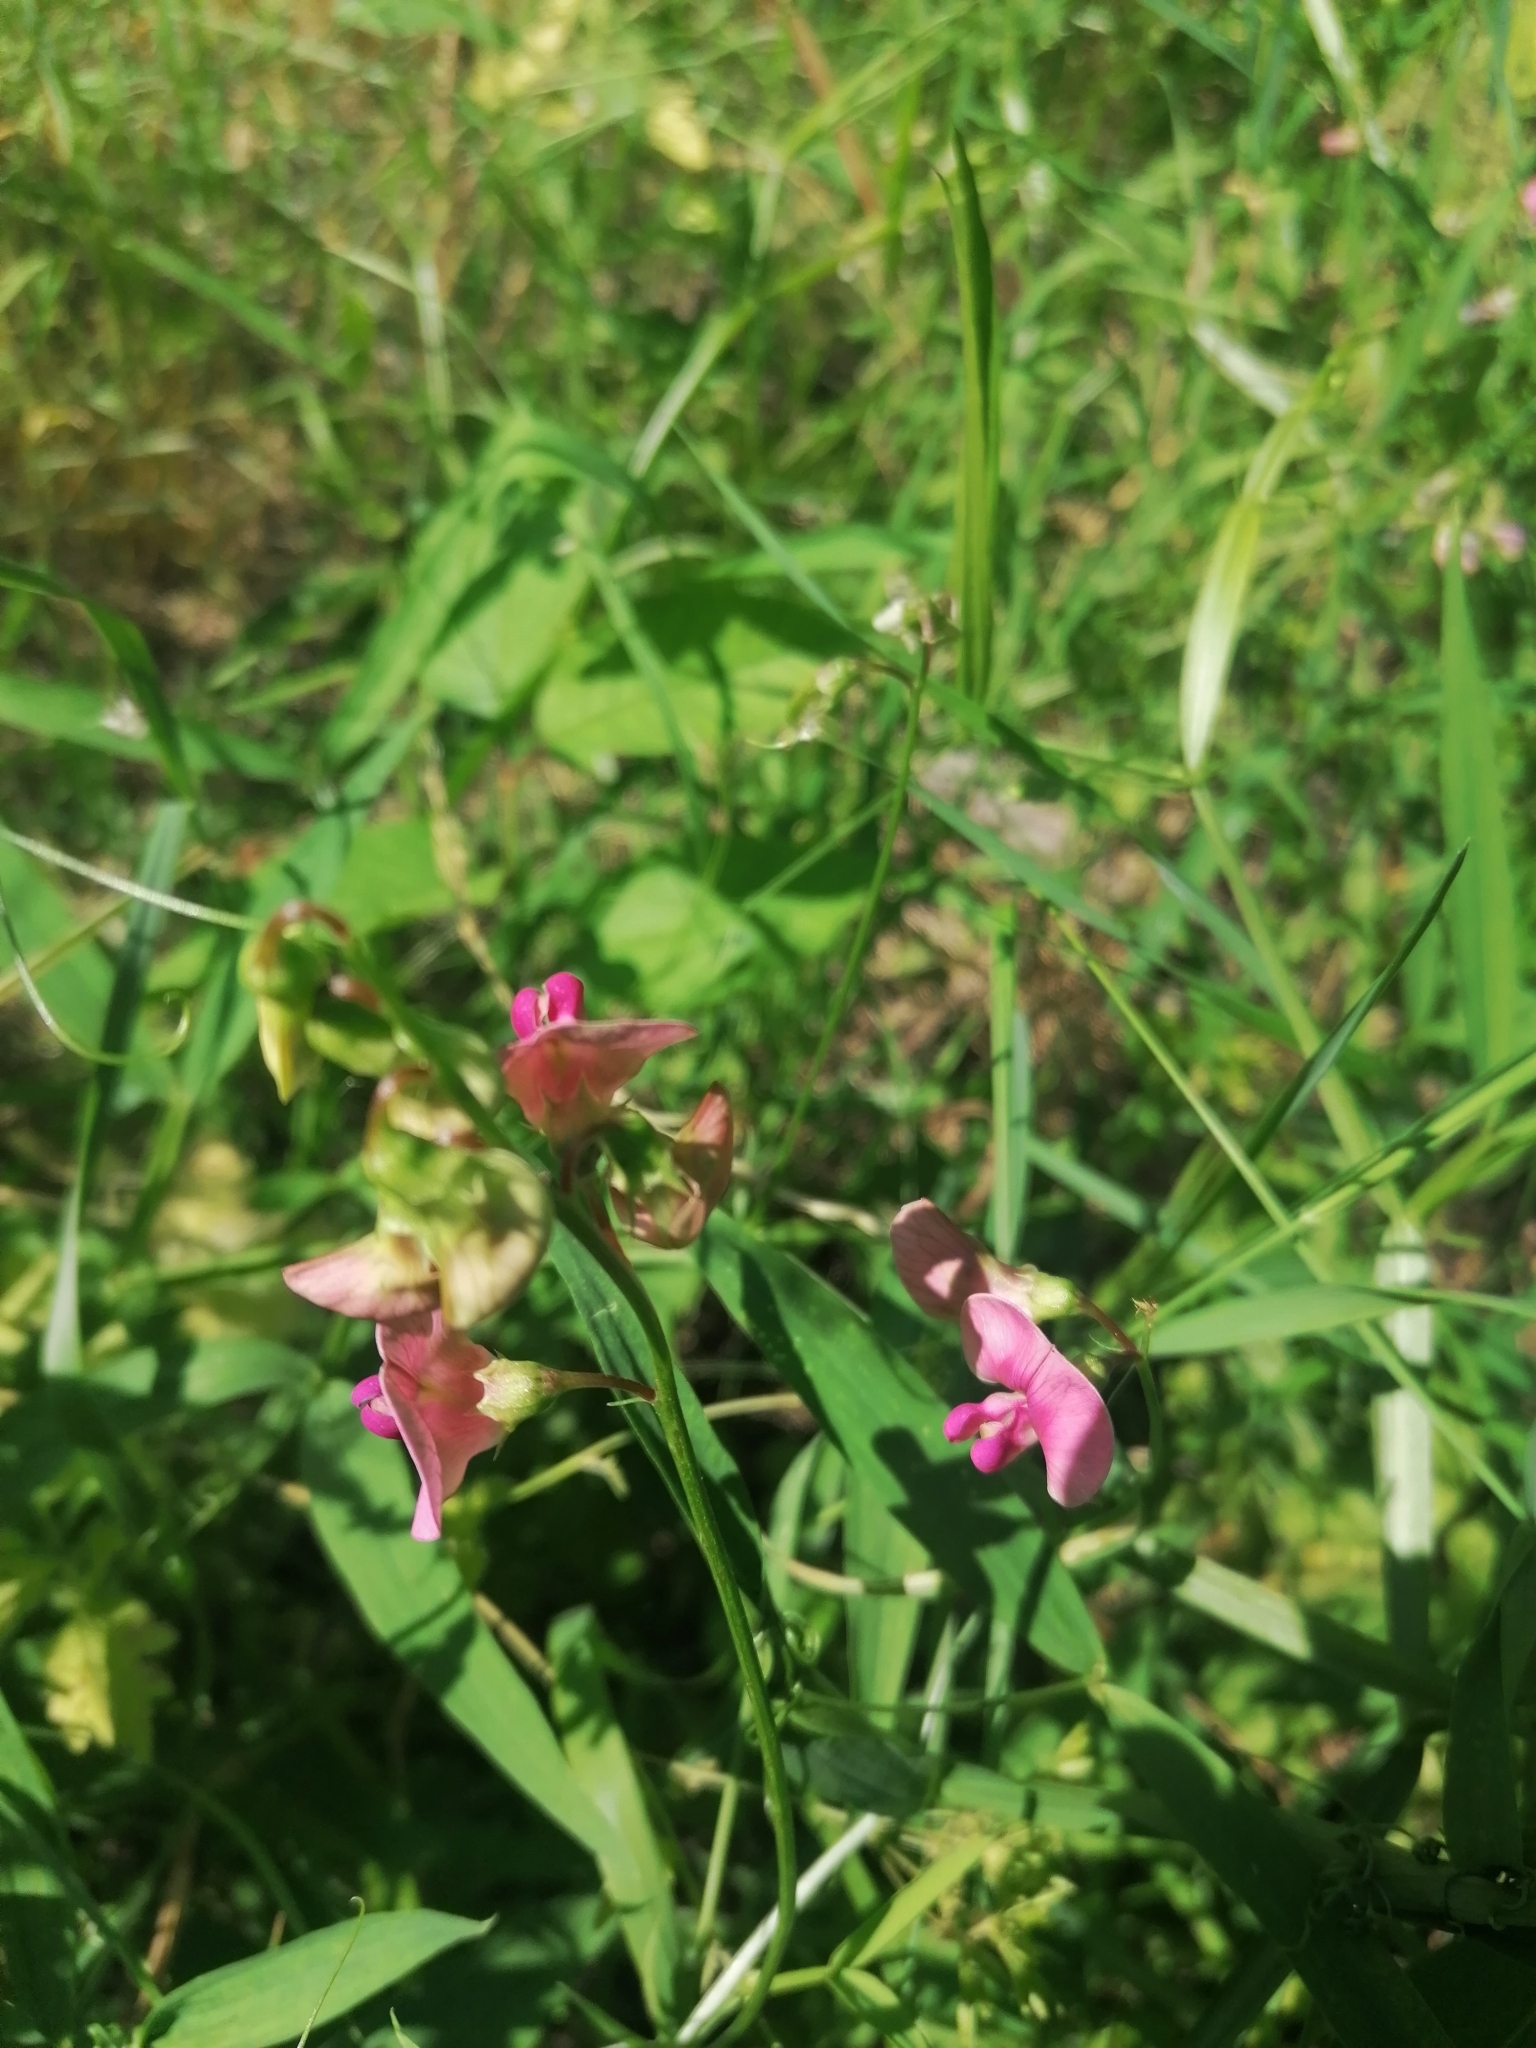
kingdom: Plantae
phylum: Tracheophyta
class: Magnoliopsida
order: Fabales
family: Fabaceae
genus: Lathyrus
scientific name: Lathyrus sylvestris
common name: Flat pea
